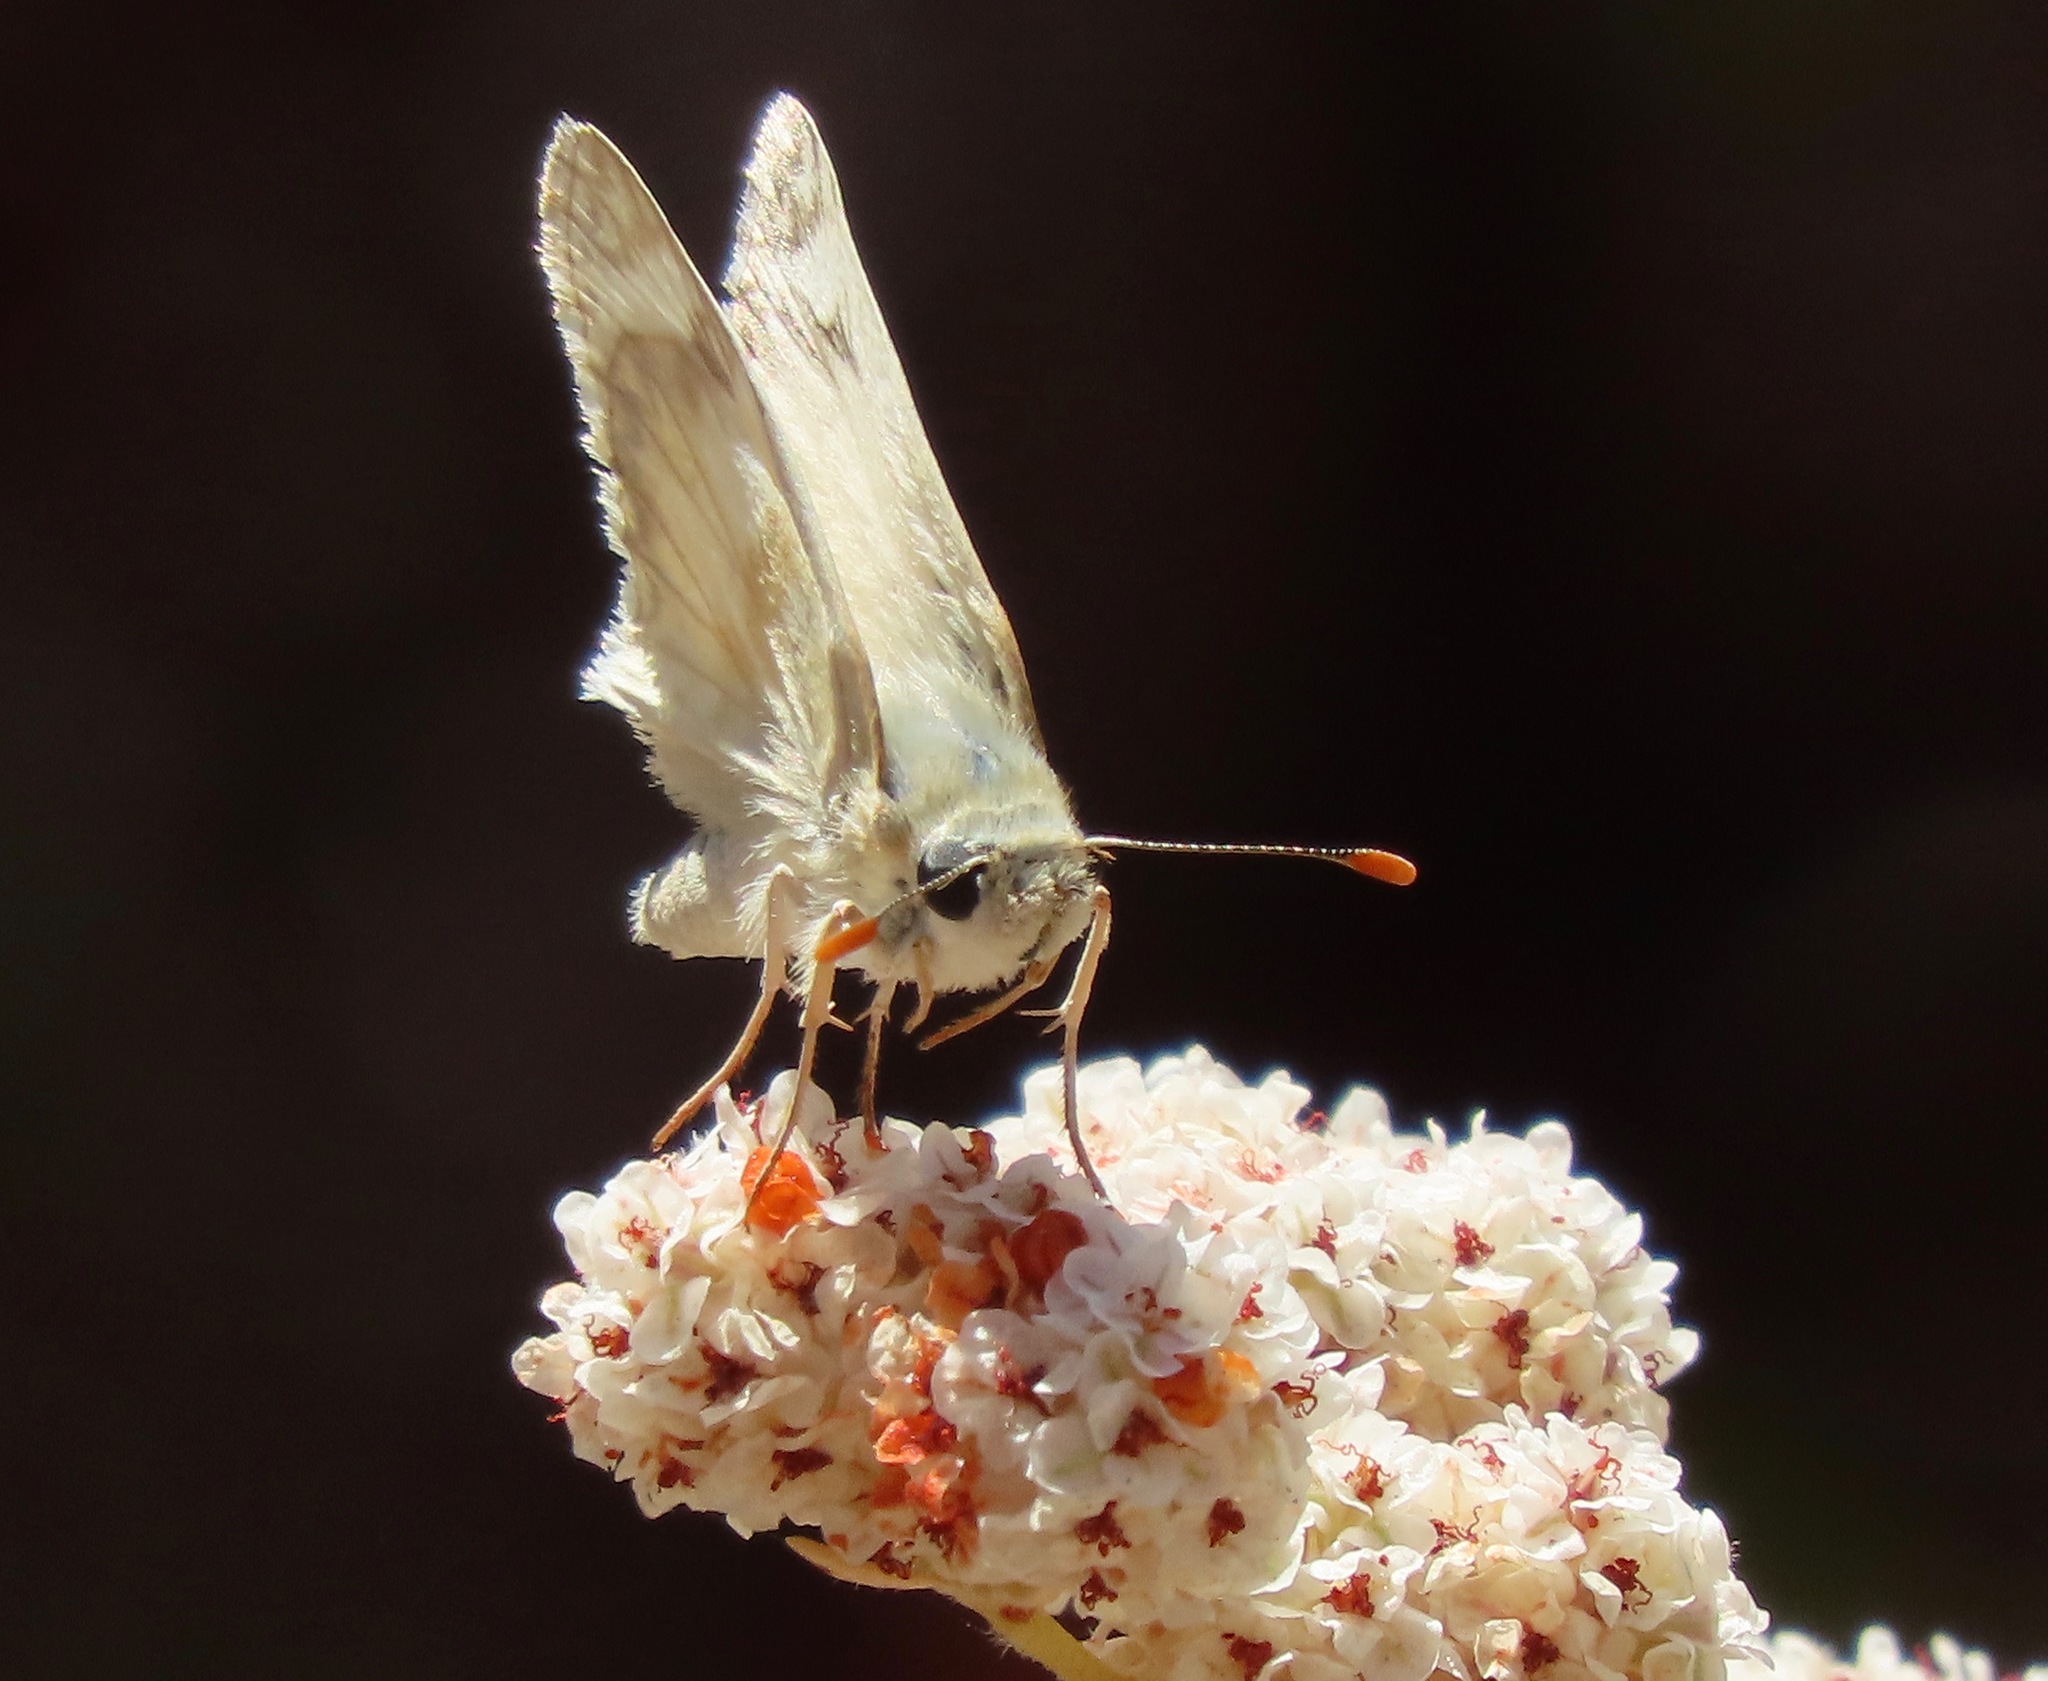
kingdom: Animalia
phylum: Arthropoda
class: Insecta
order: Lepidoptera
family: Hesperiidae
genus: Heliopetes
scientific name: Heliopetes ericetorum
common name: Northern white-skipper
